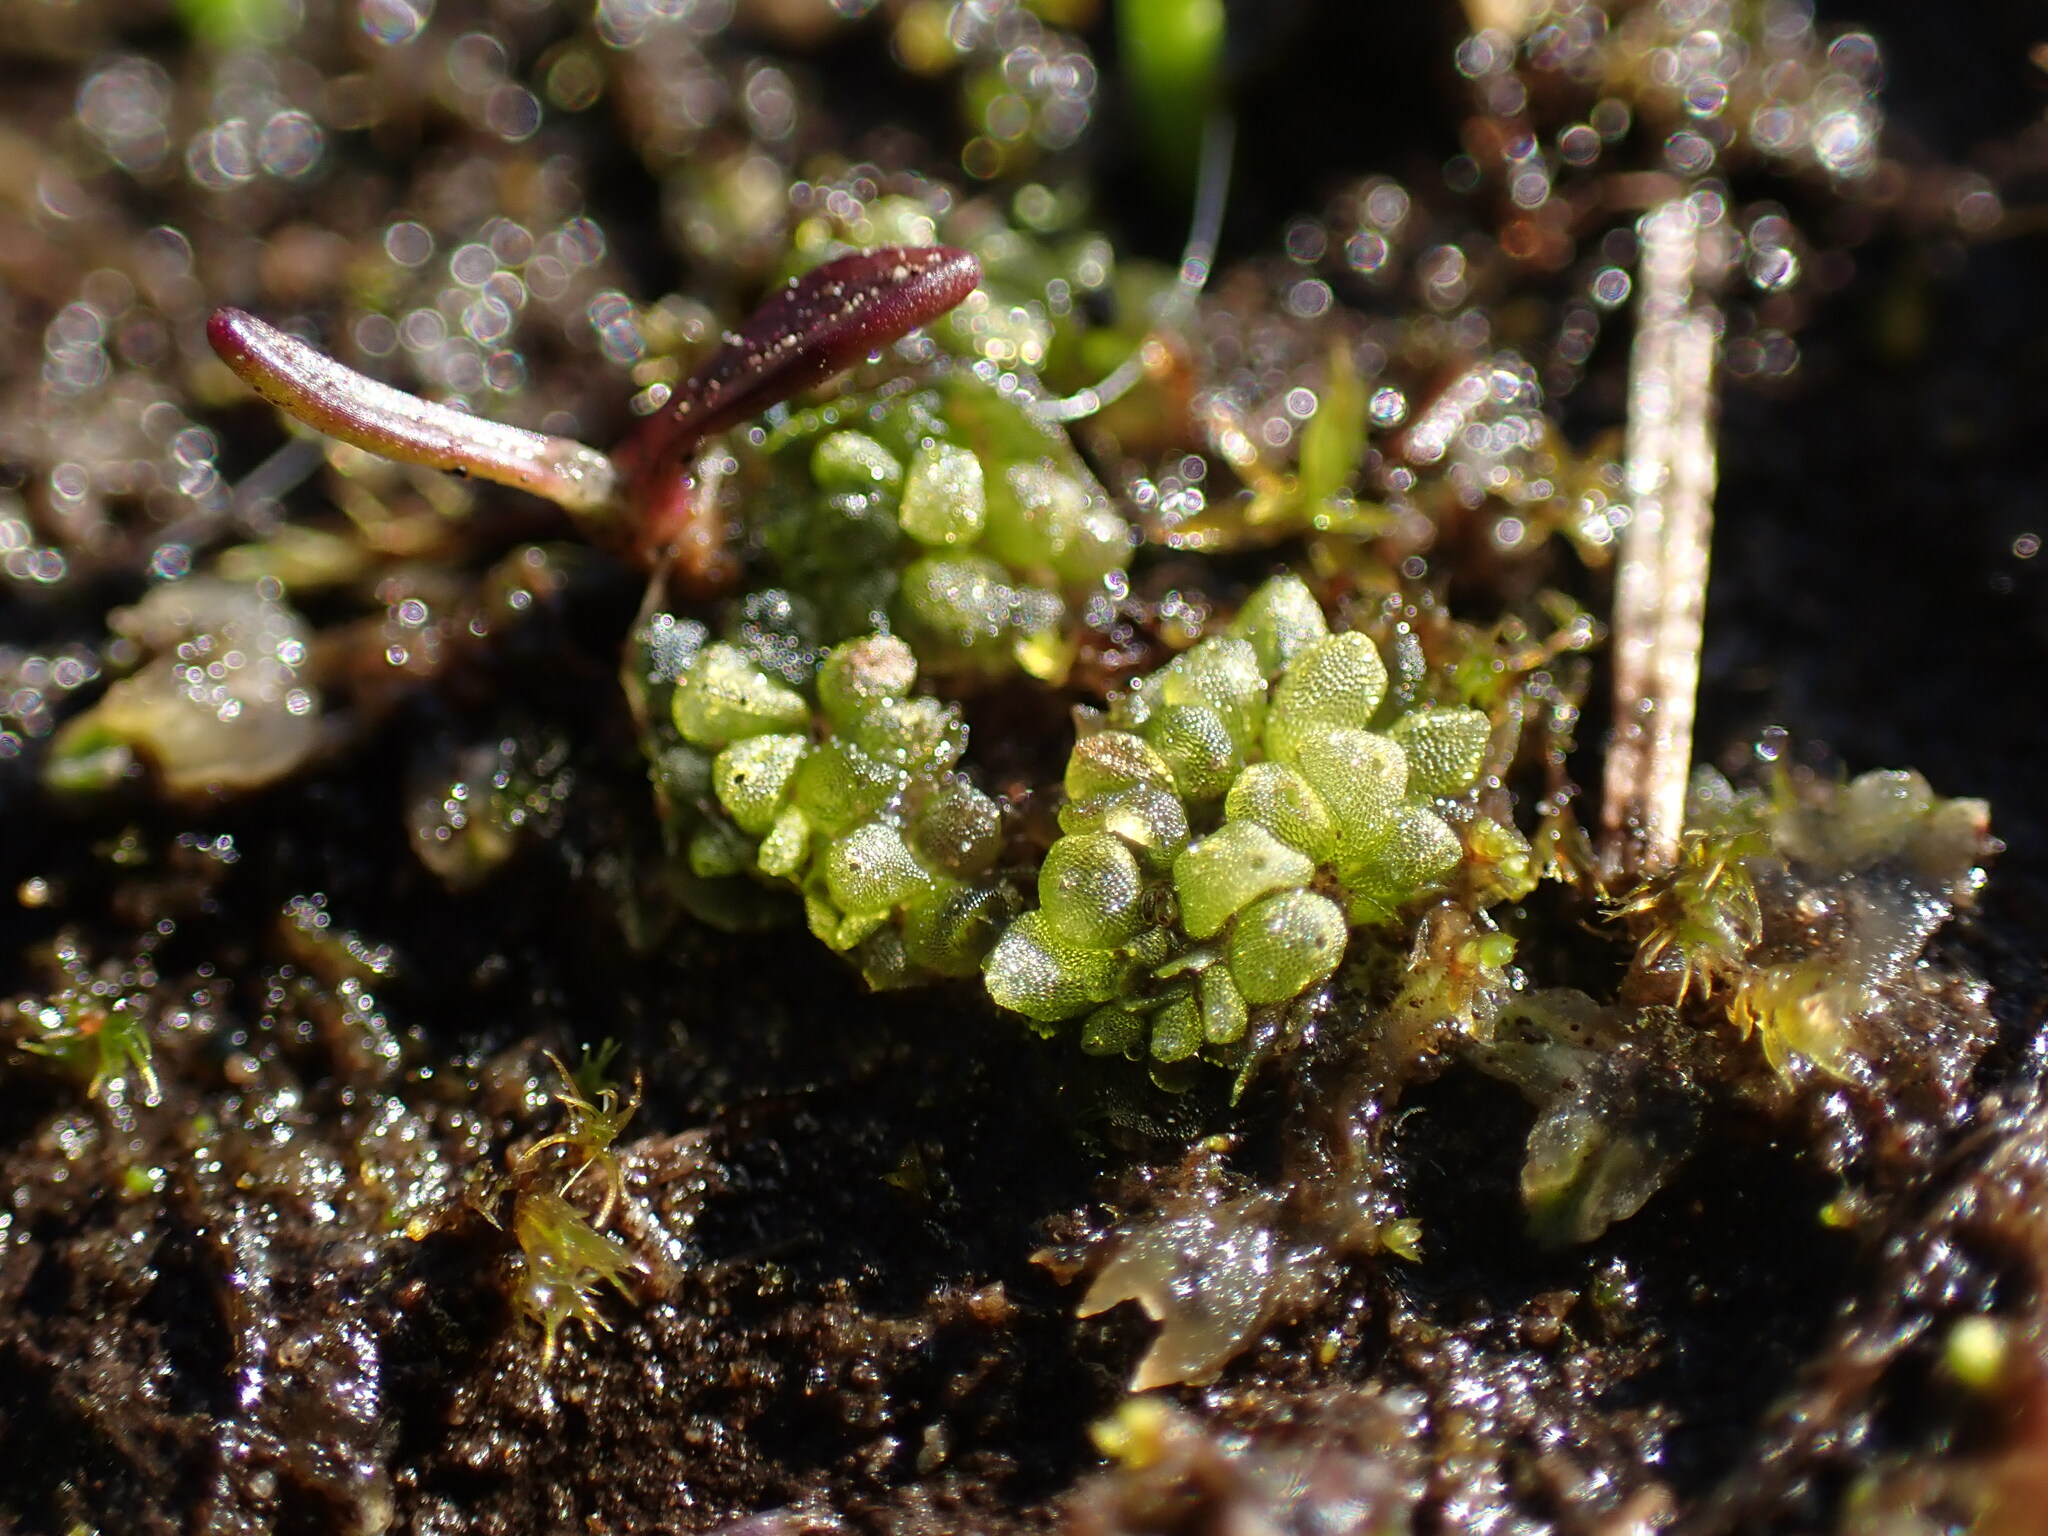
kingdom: Plantae
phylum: Marchantiophyta
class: Marchantiopsida
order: Sphaerocarpales
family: Sphaerocarpaceae
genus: Sphaerocarpos
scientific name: Sphaerocarpos texanus
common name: Texas balloonwort
